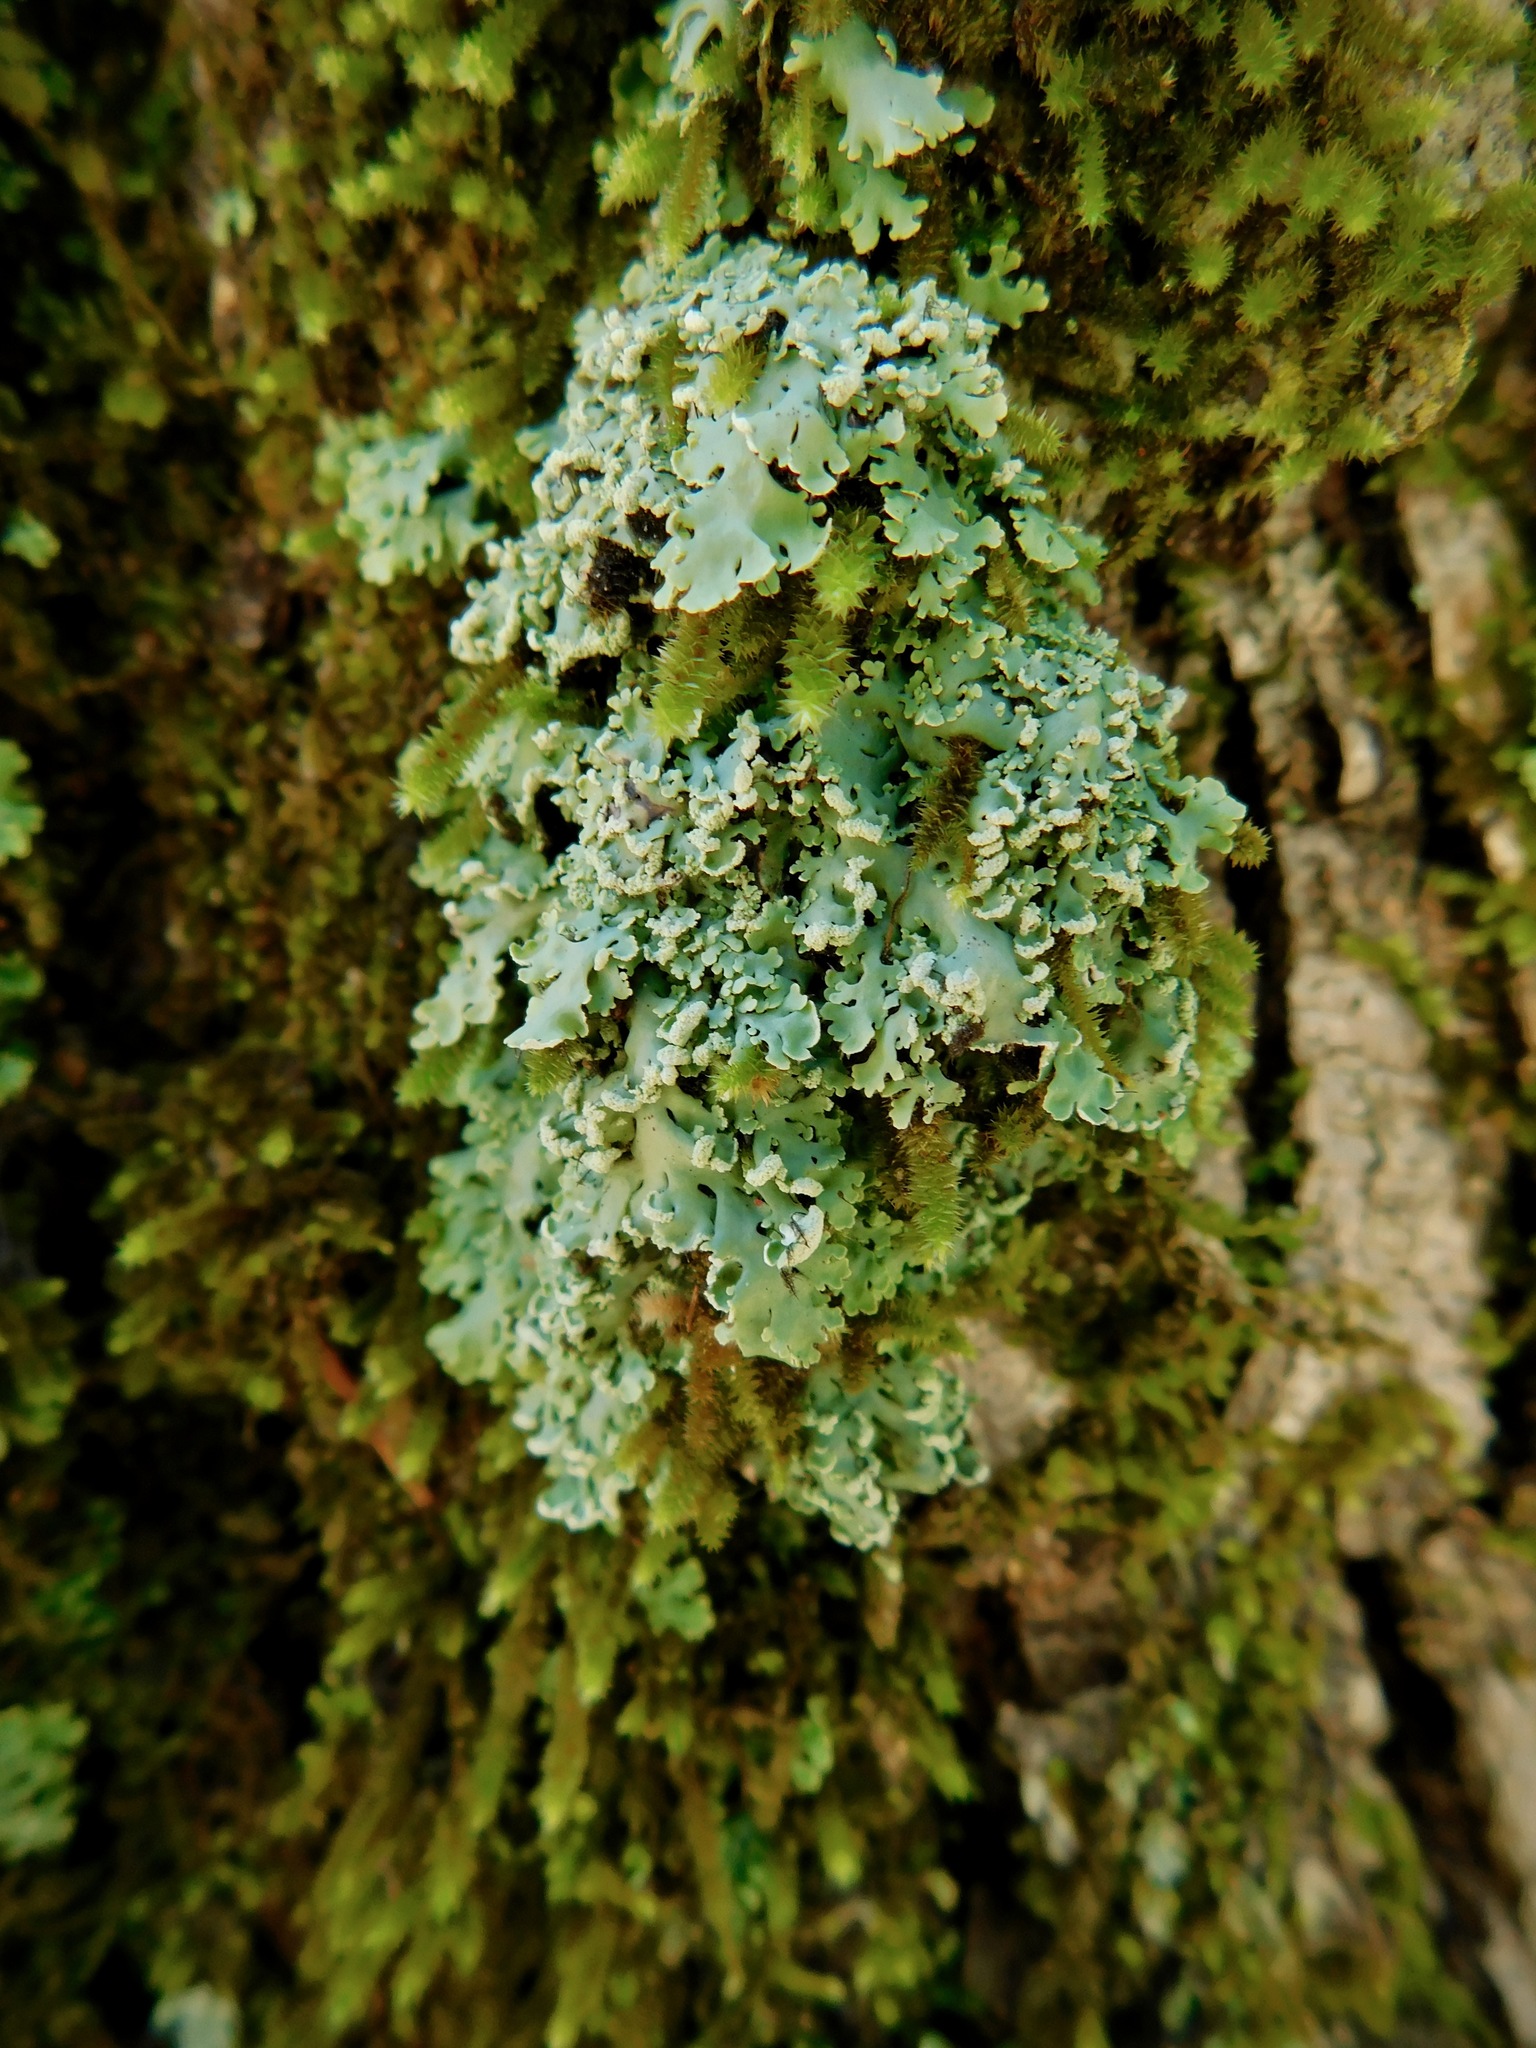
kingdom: Fungi
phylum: Ascomycota
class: Lecanoromycetes
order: Caliciales
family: Physciaceae
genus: Polyblastidium
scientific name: Polyblastidium casarettianum
